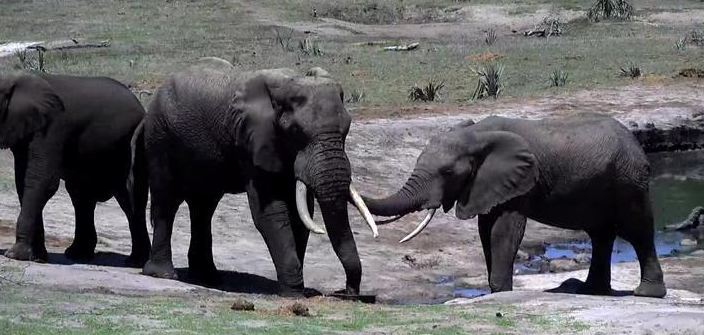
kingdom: Animalia
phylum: Chordata
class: Mammalia
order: Proboscidea
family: Elephantidae
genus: Loxodonta
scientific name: Loxodonta africana
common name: African elephant
